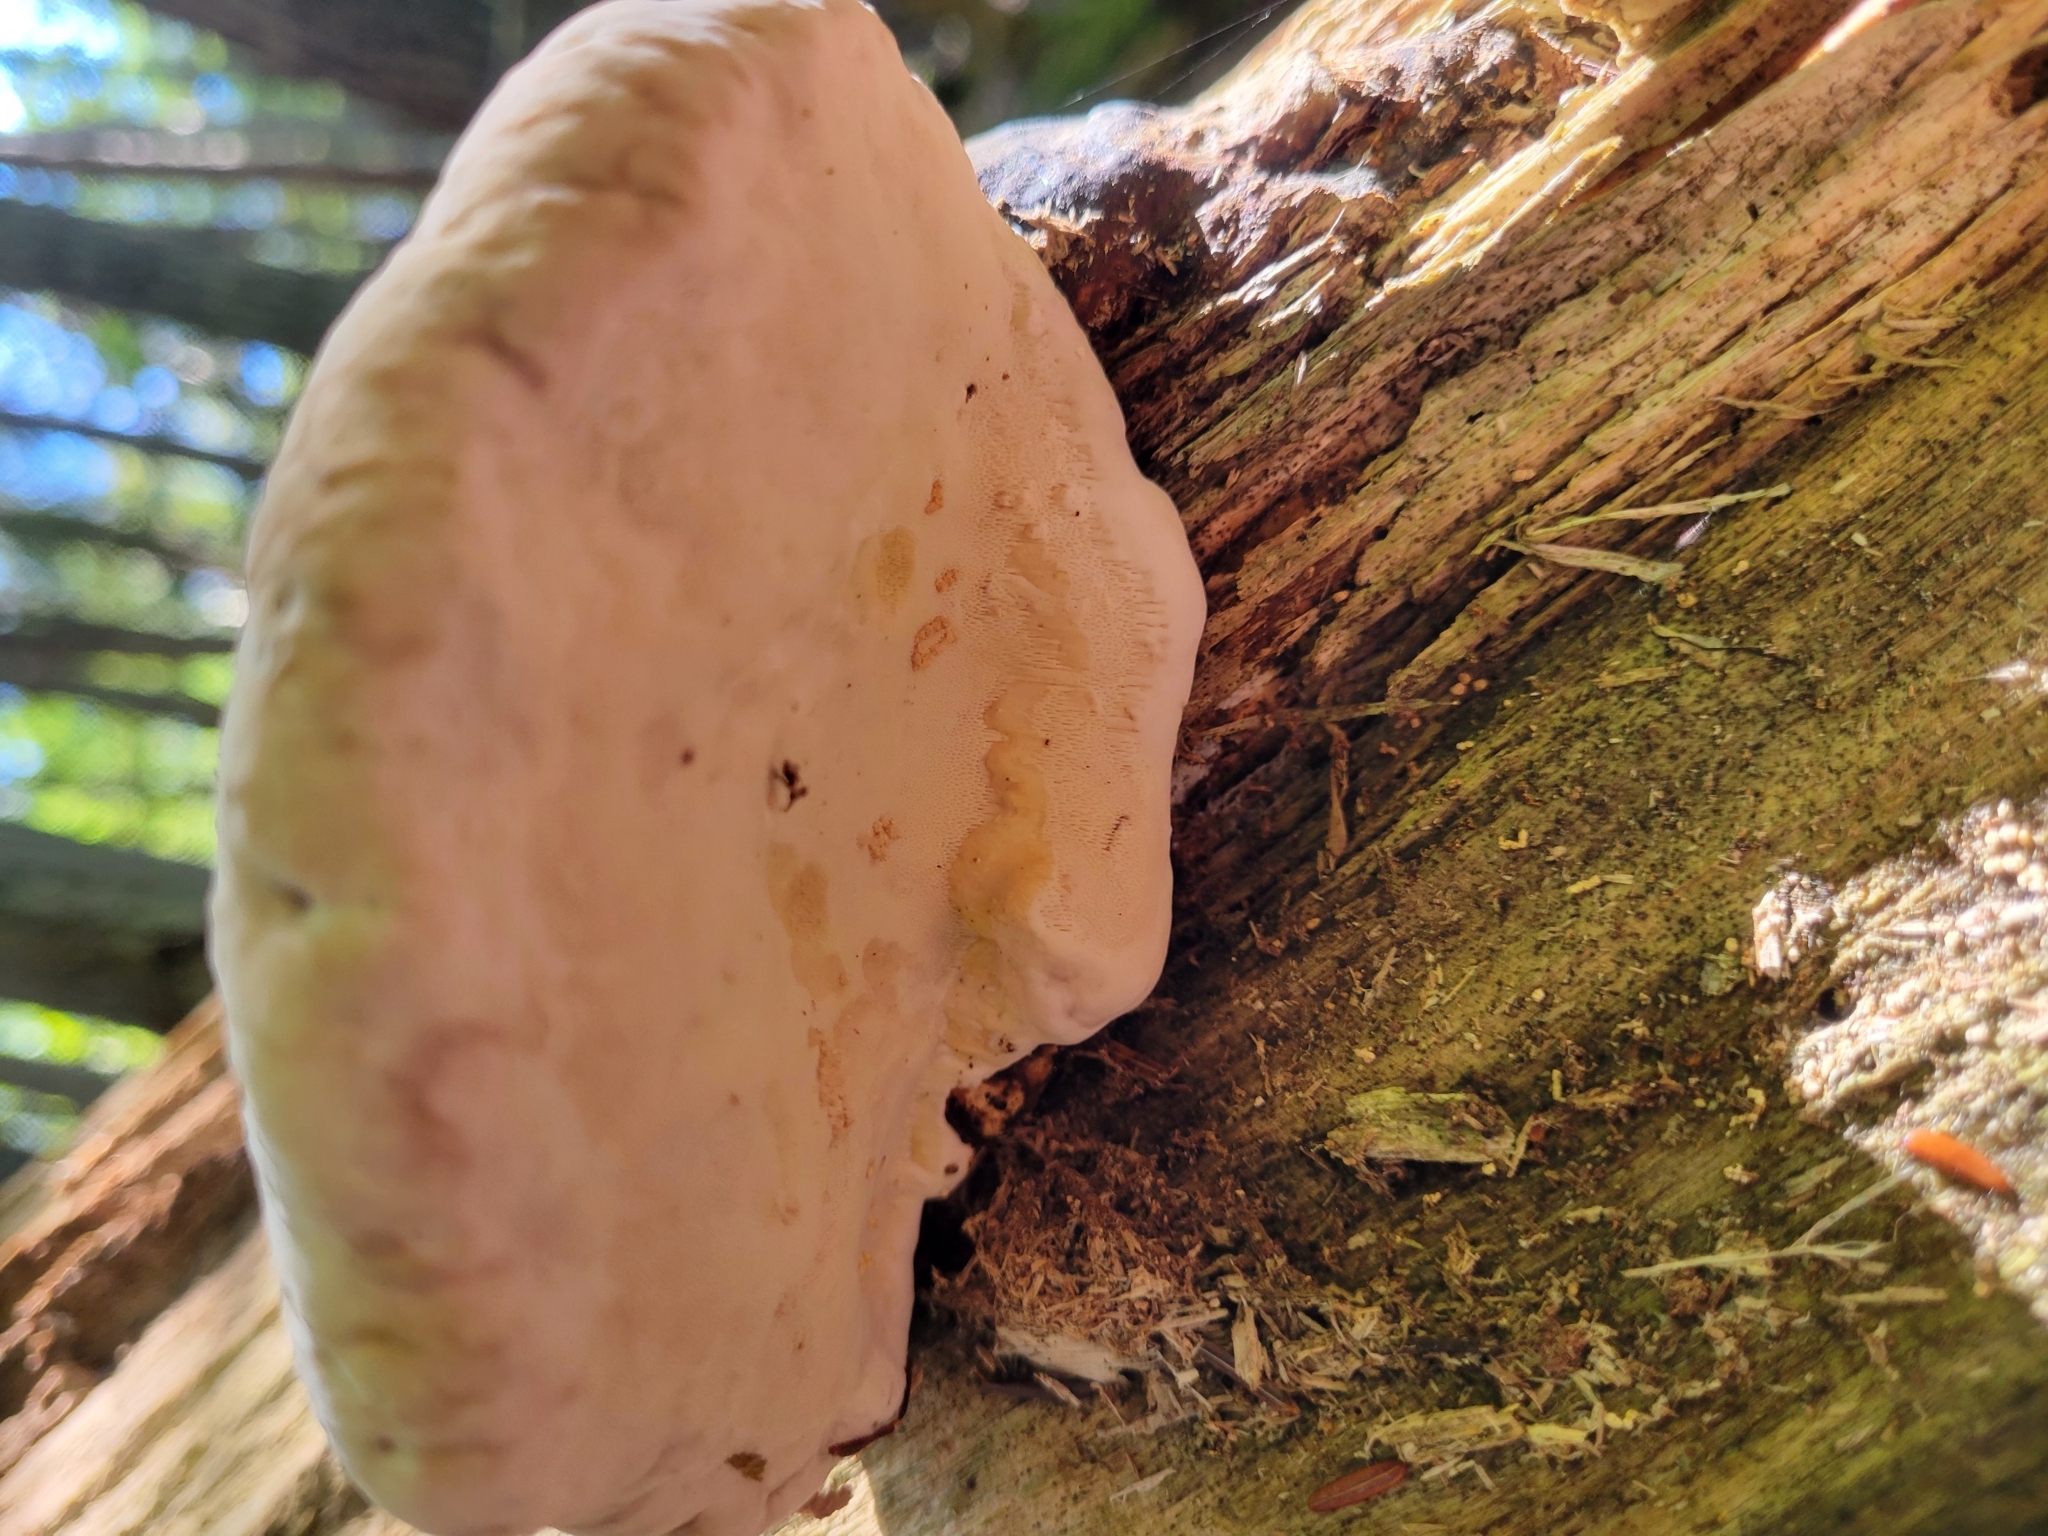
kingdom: Fungi
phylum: Basidiomycota
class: Agaricomycetes
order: Polyporales
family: Fomitopsidaceae
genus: Fomitopsis
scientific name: Fomitopsis mounceae
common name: Northern red belt
